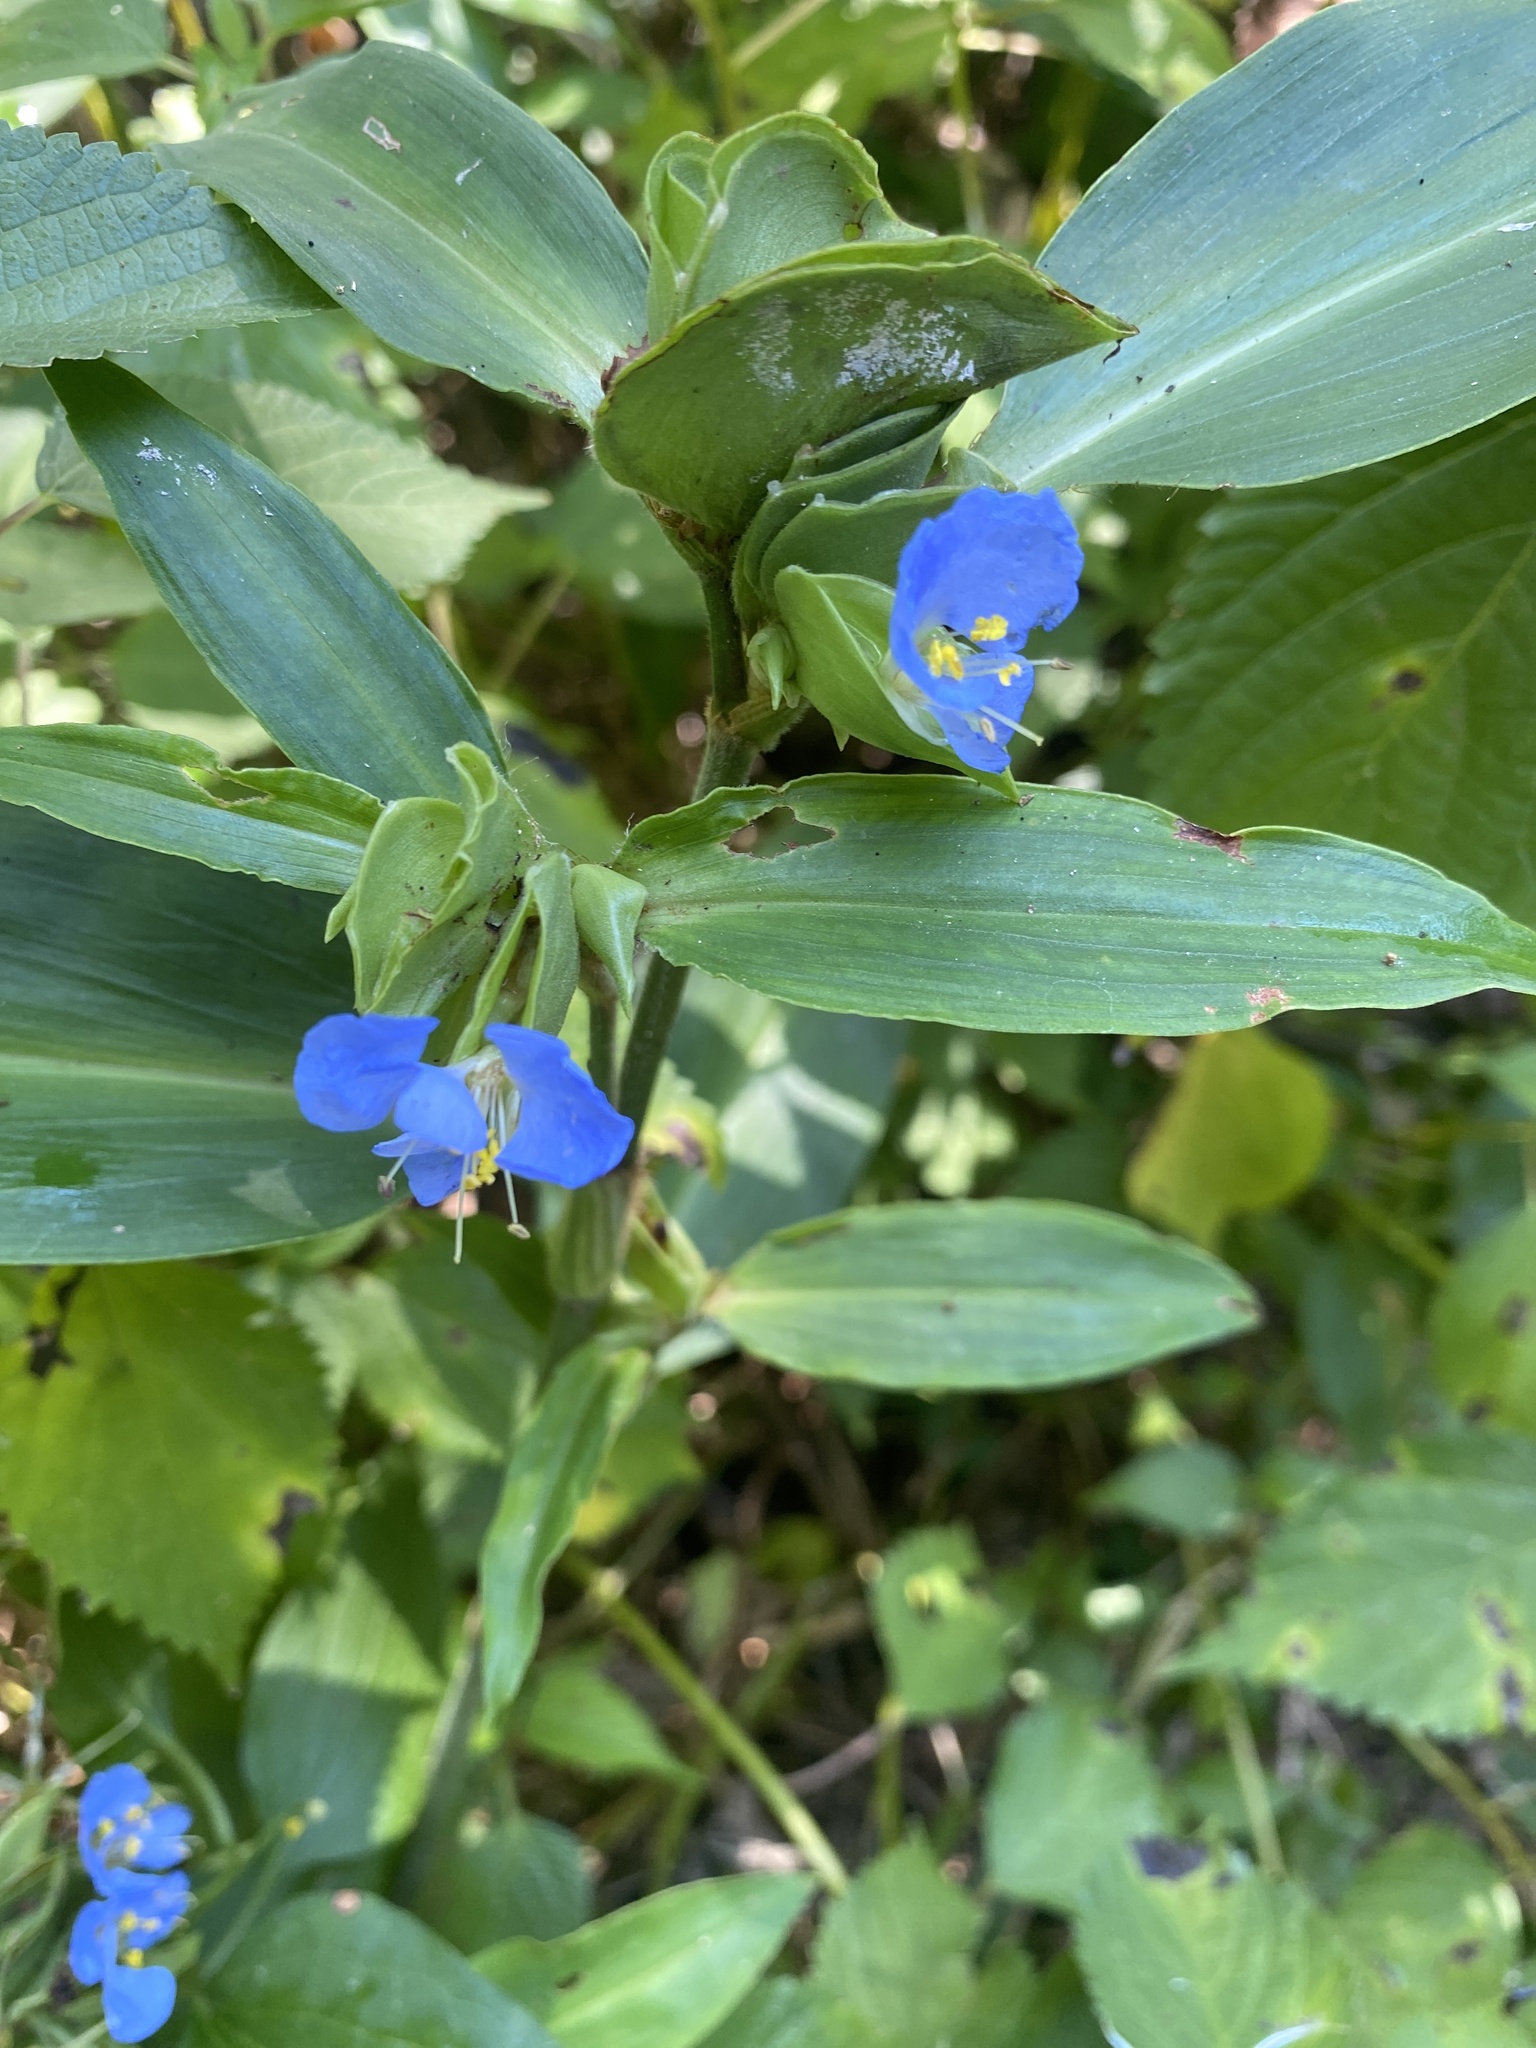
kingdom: Plantae
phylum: Tracheophyta
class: Liliopsida
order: Commelinales
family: Commelinaceae
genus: Commelina
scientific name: Commelina virginica
